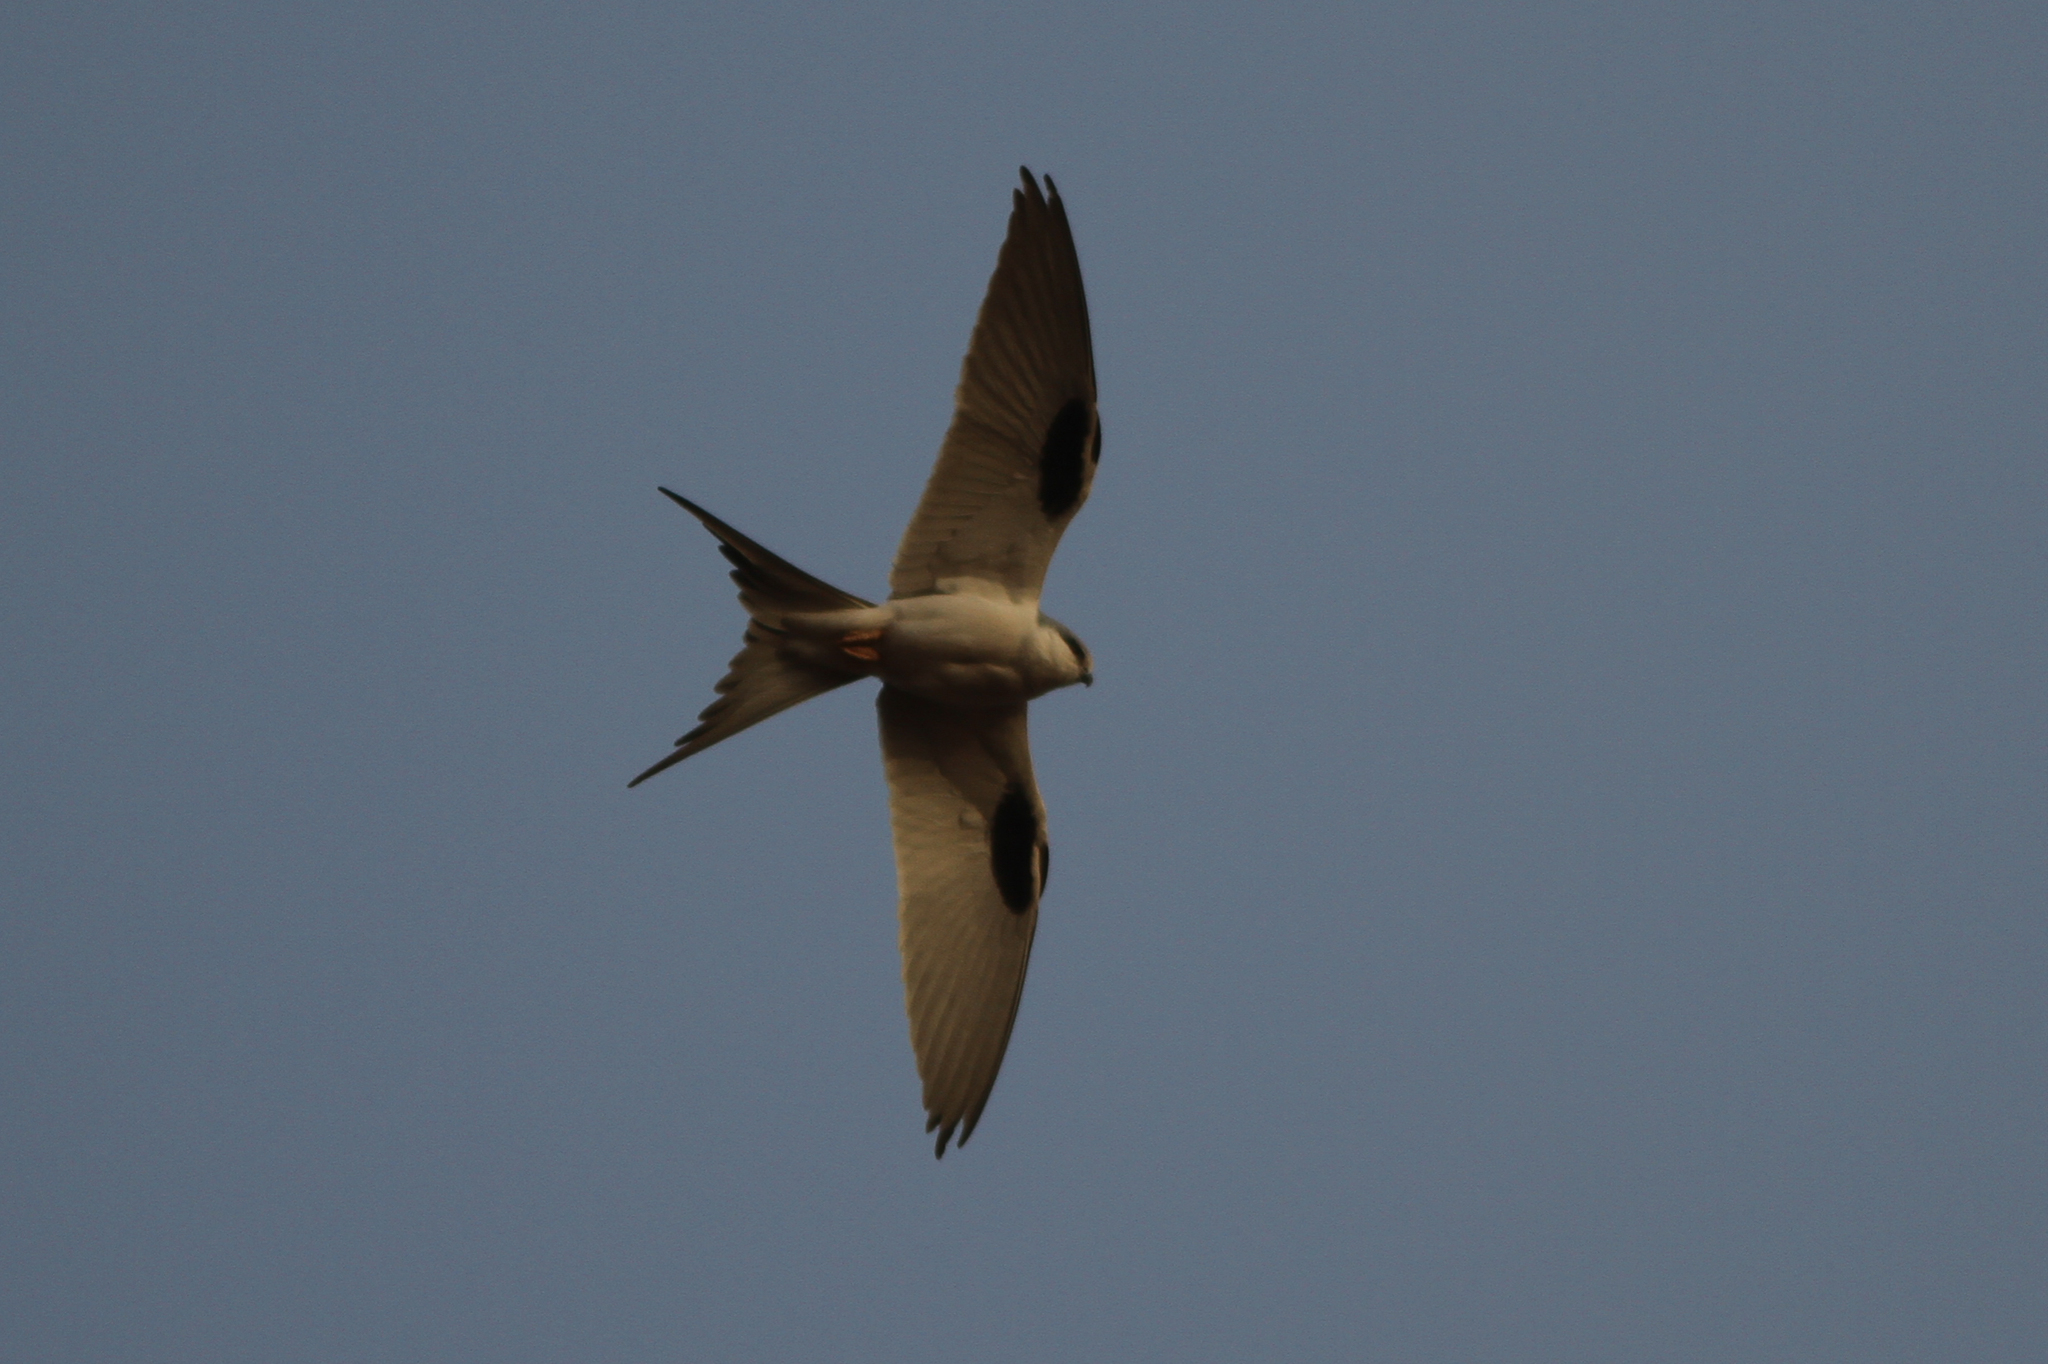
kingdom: Animalia
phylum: Chordata
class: Aves
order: Accipitriformes
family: Accipitridae
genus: Chelictinia
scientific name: Chelictinia riocourii
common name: Scissor-tailed kite
